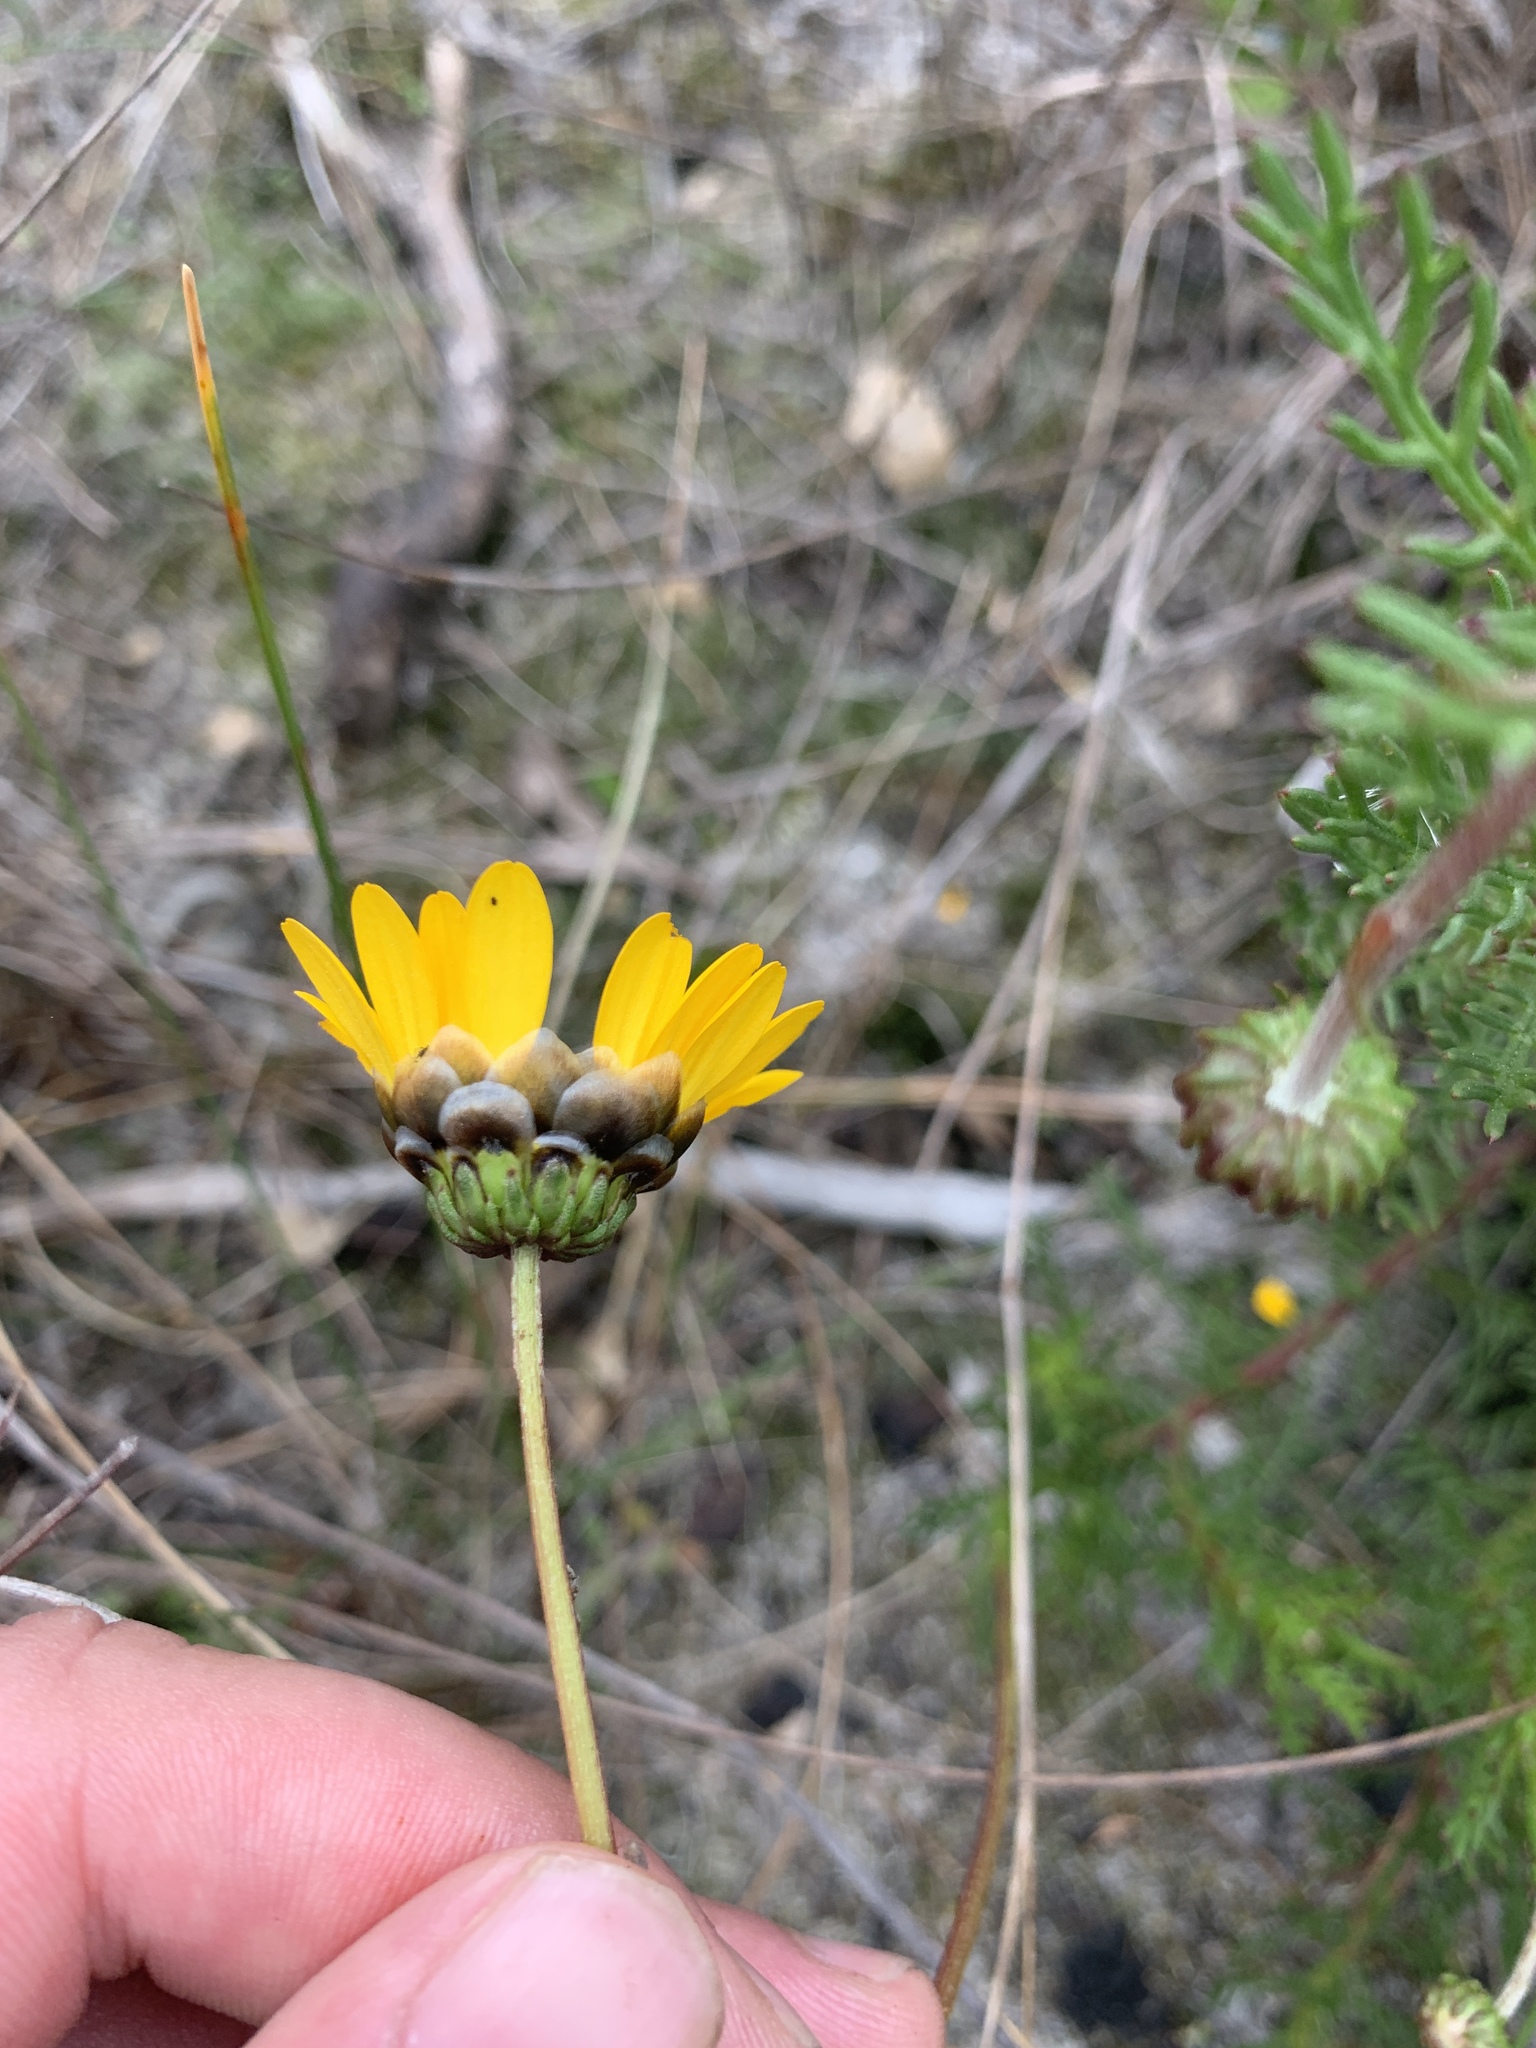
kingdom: Plantae
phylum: Tracheophyta
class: Magnoliopsida
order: Asterales
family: Asteraceae
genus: Ursinia
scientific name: Ursinia paleacea
